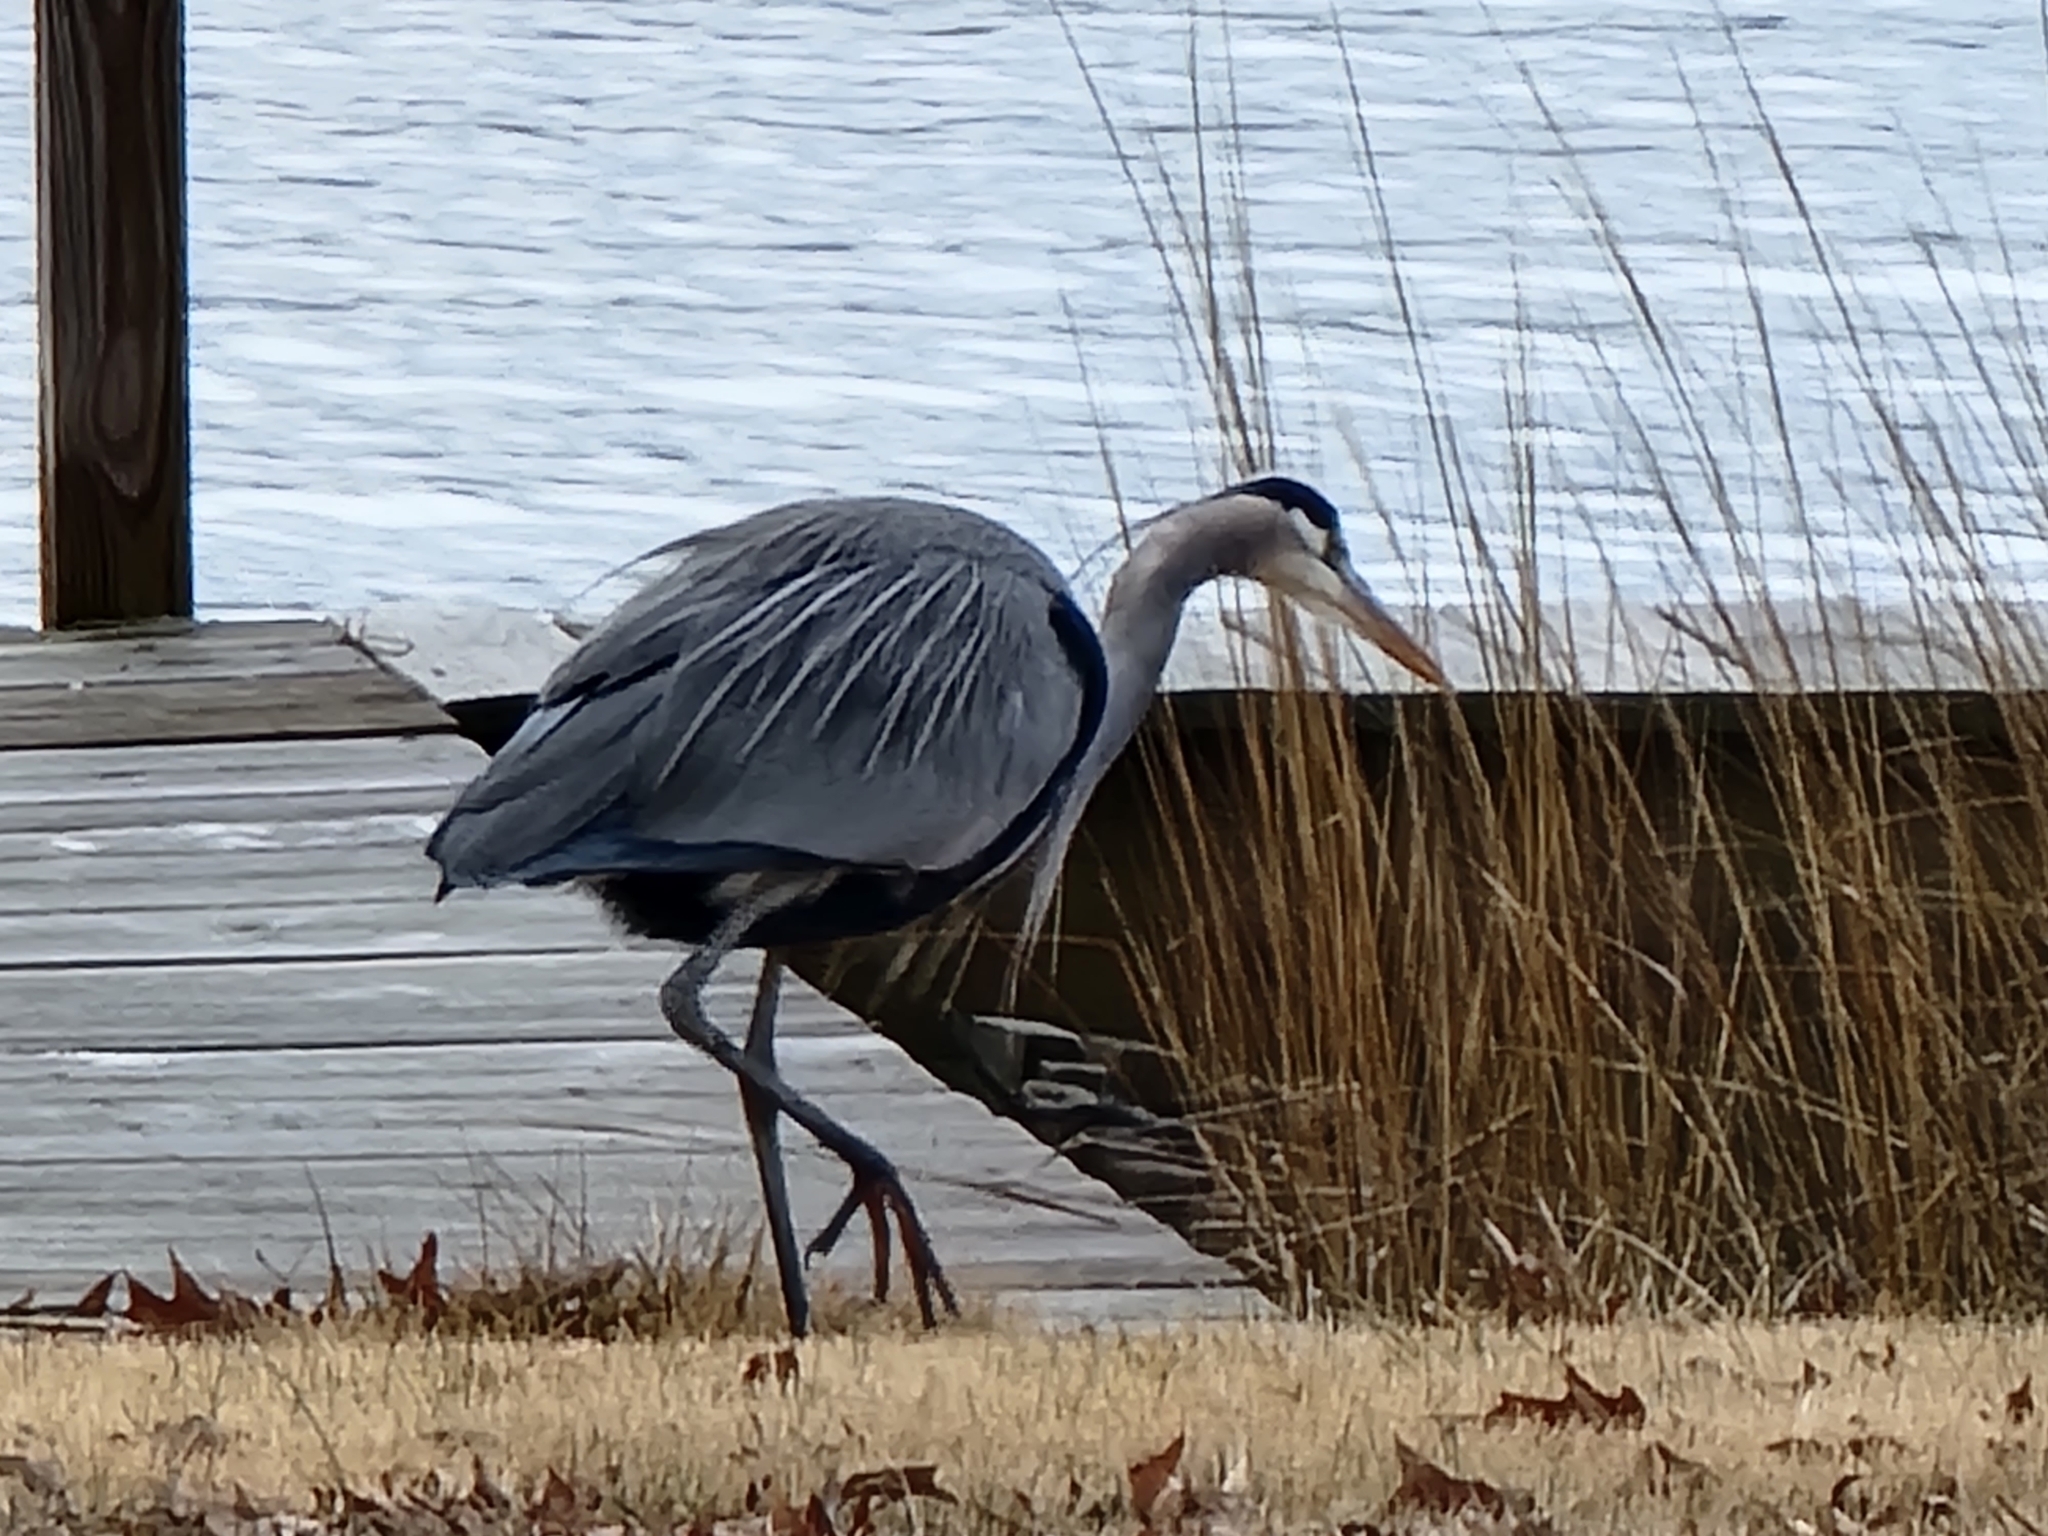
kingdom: Animalia
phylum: Chordata
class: Aves
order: Pelecaniformes
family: Ardeidae
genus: Ardea
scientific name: Ardea herodias
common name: Great blue heron
